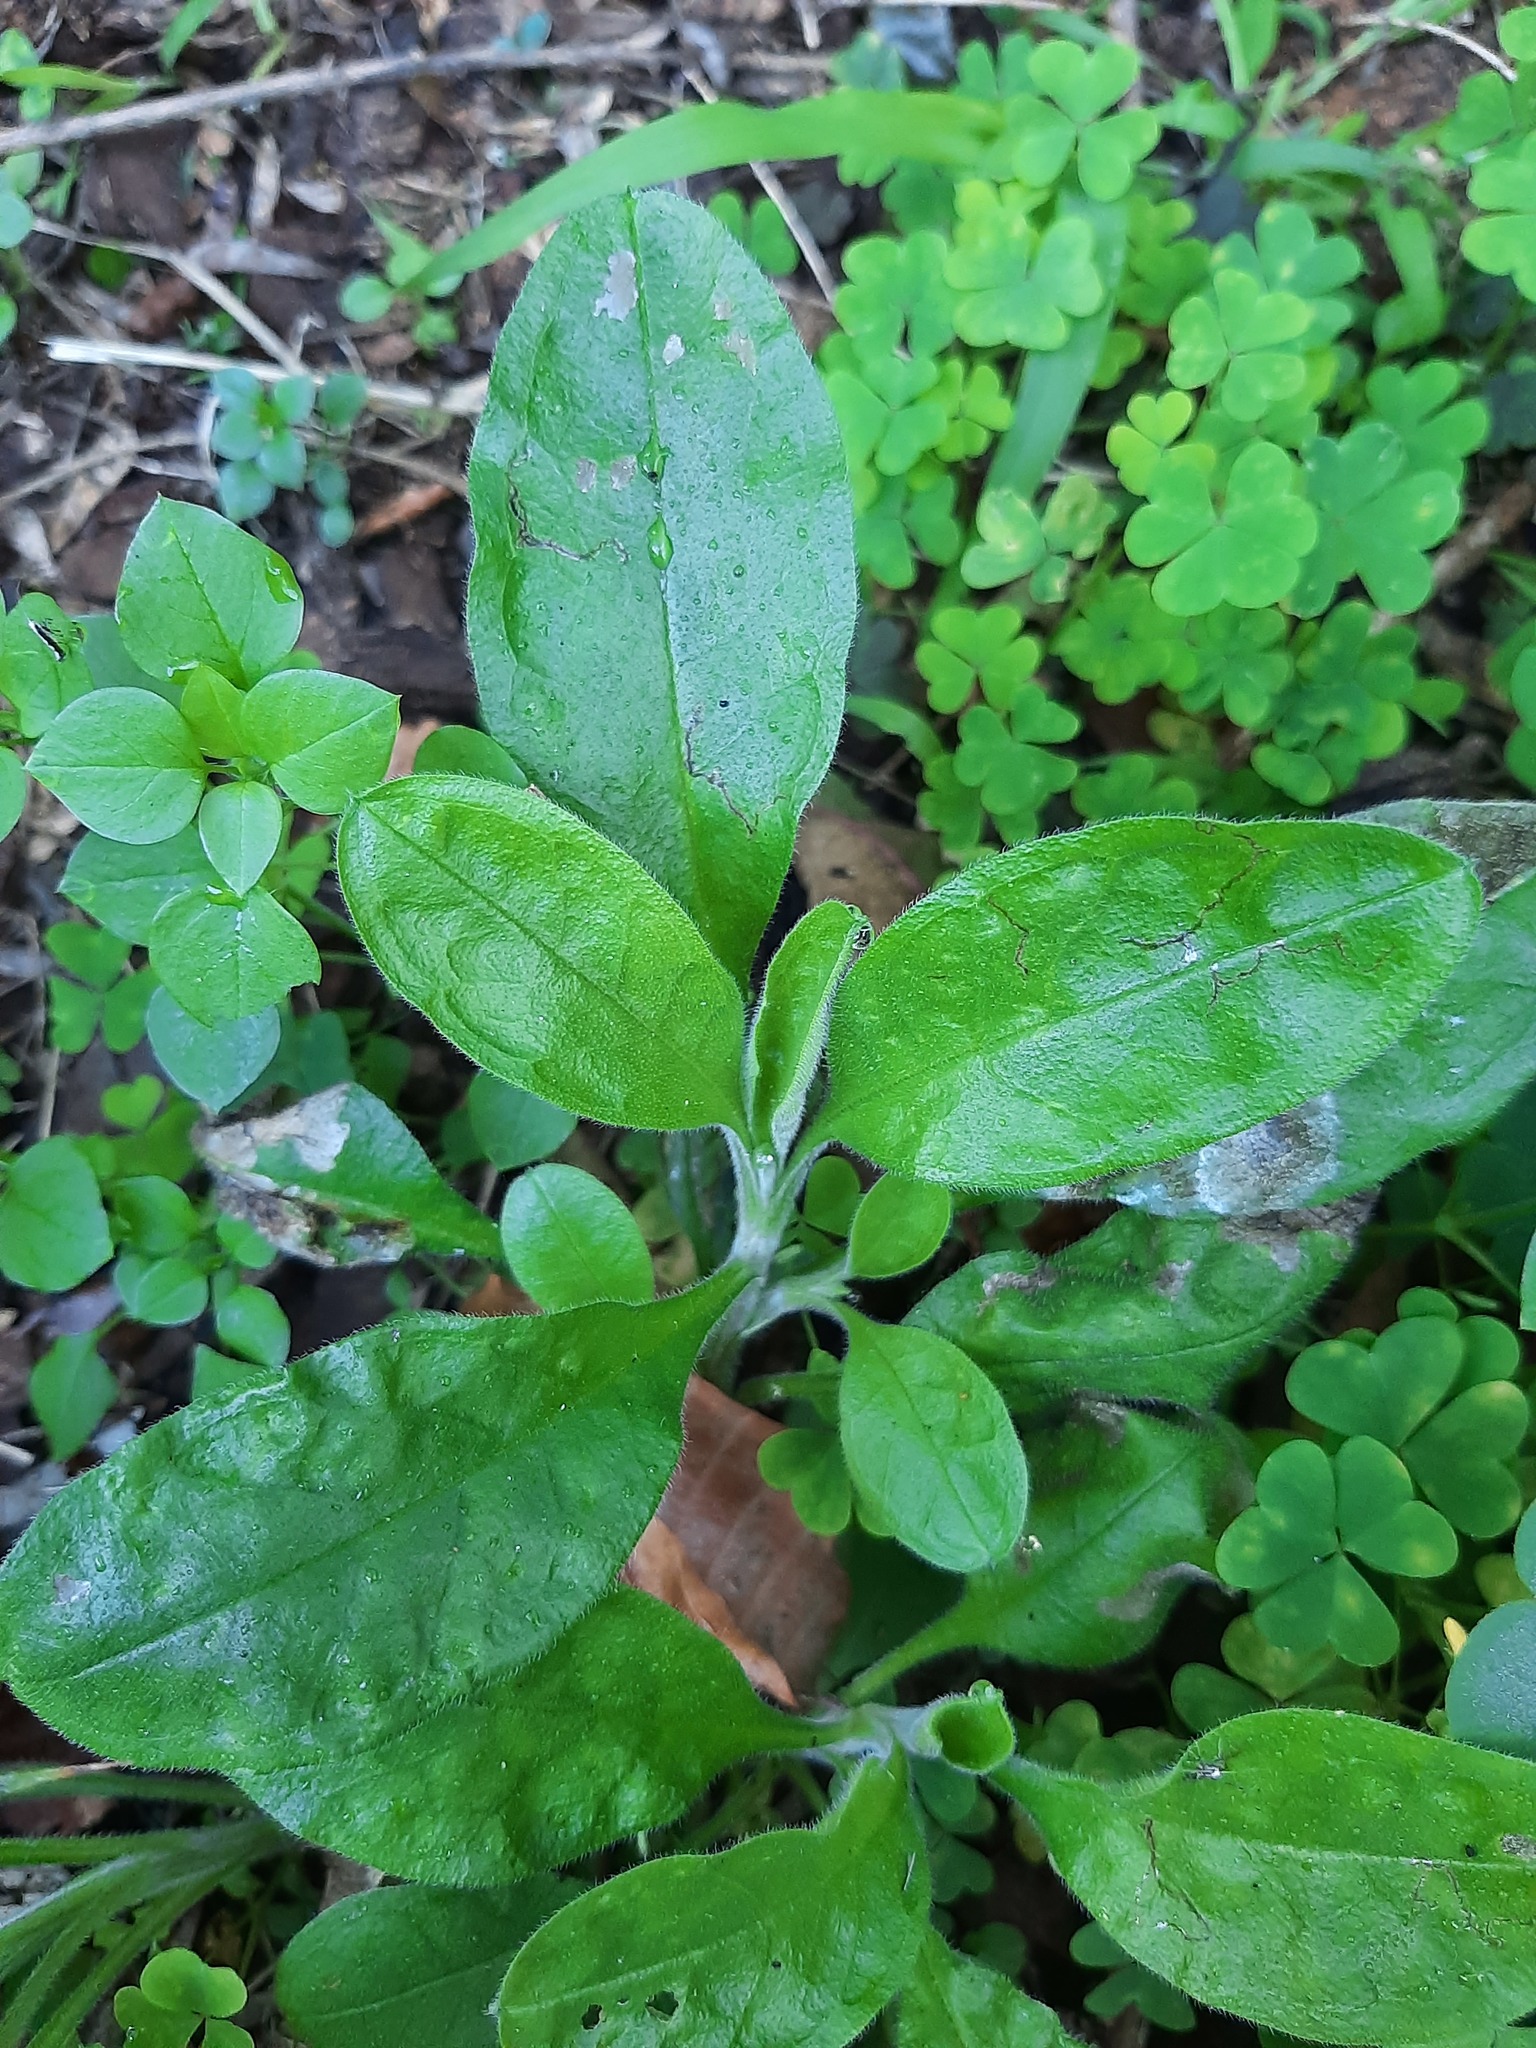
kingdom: Plantae
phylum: Tracheophyta
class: Magnoliopsida
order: Boraginales
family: Boraginaceae
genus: Myosotis
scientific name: Myosotis sylvatica
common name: Wood forget-me-not
